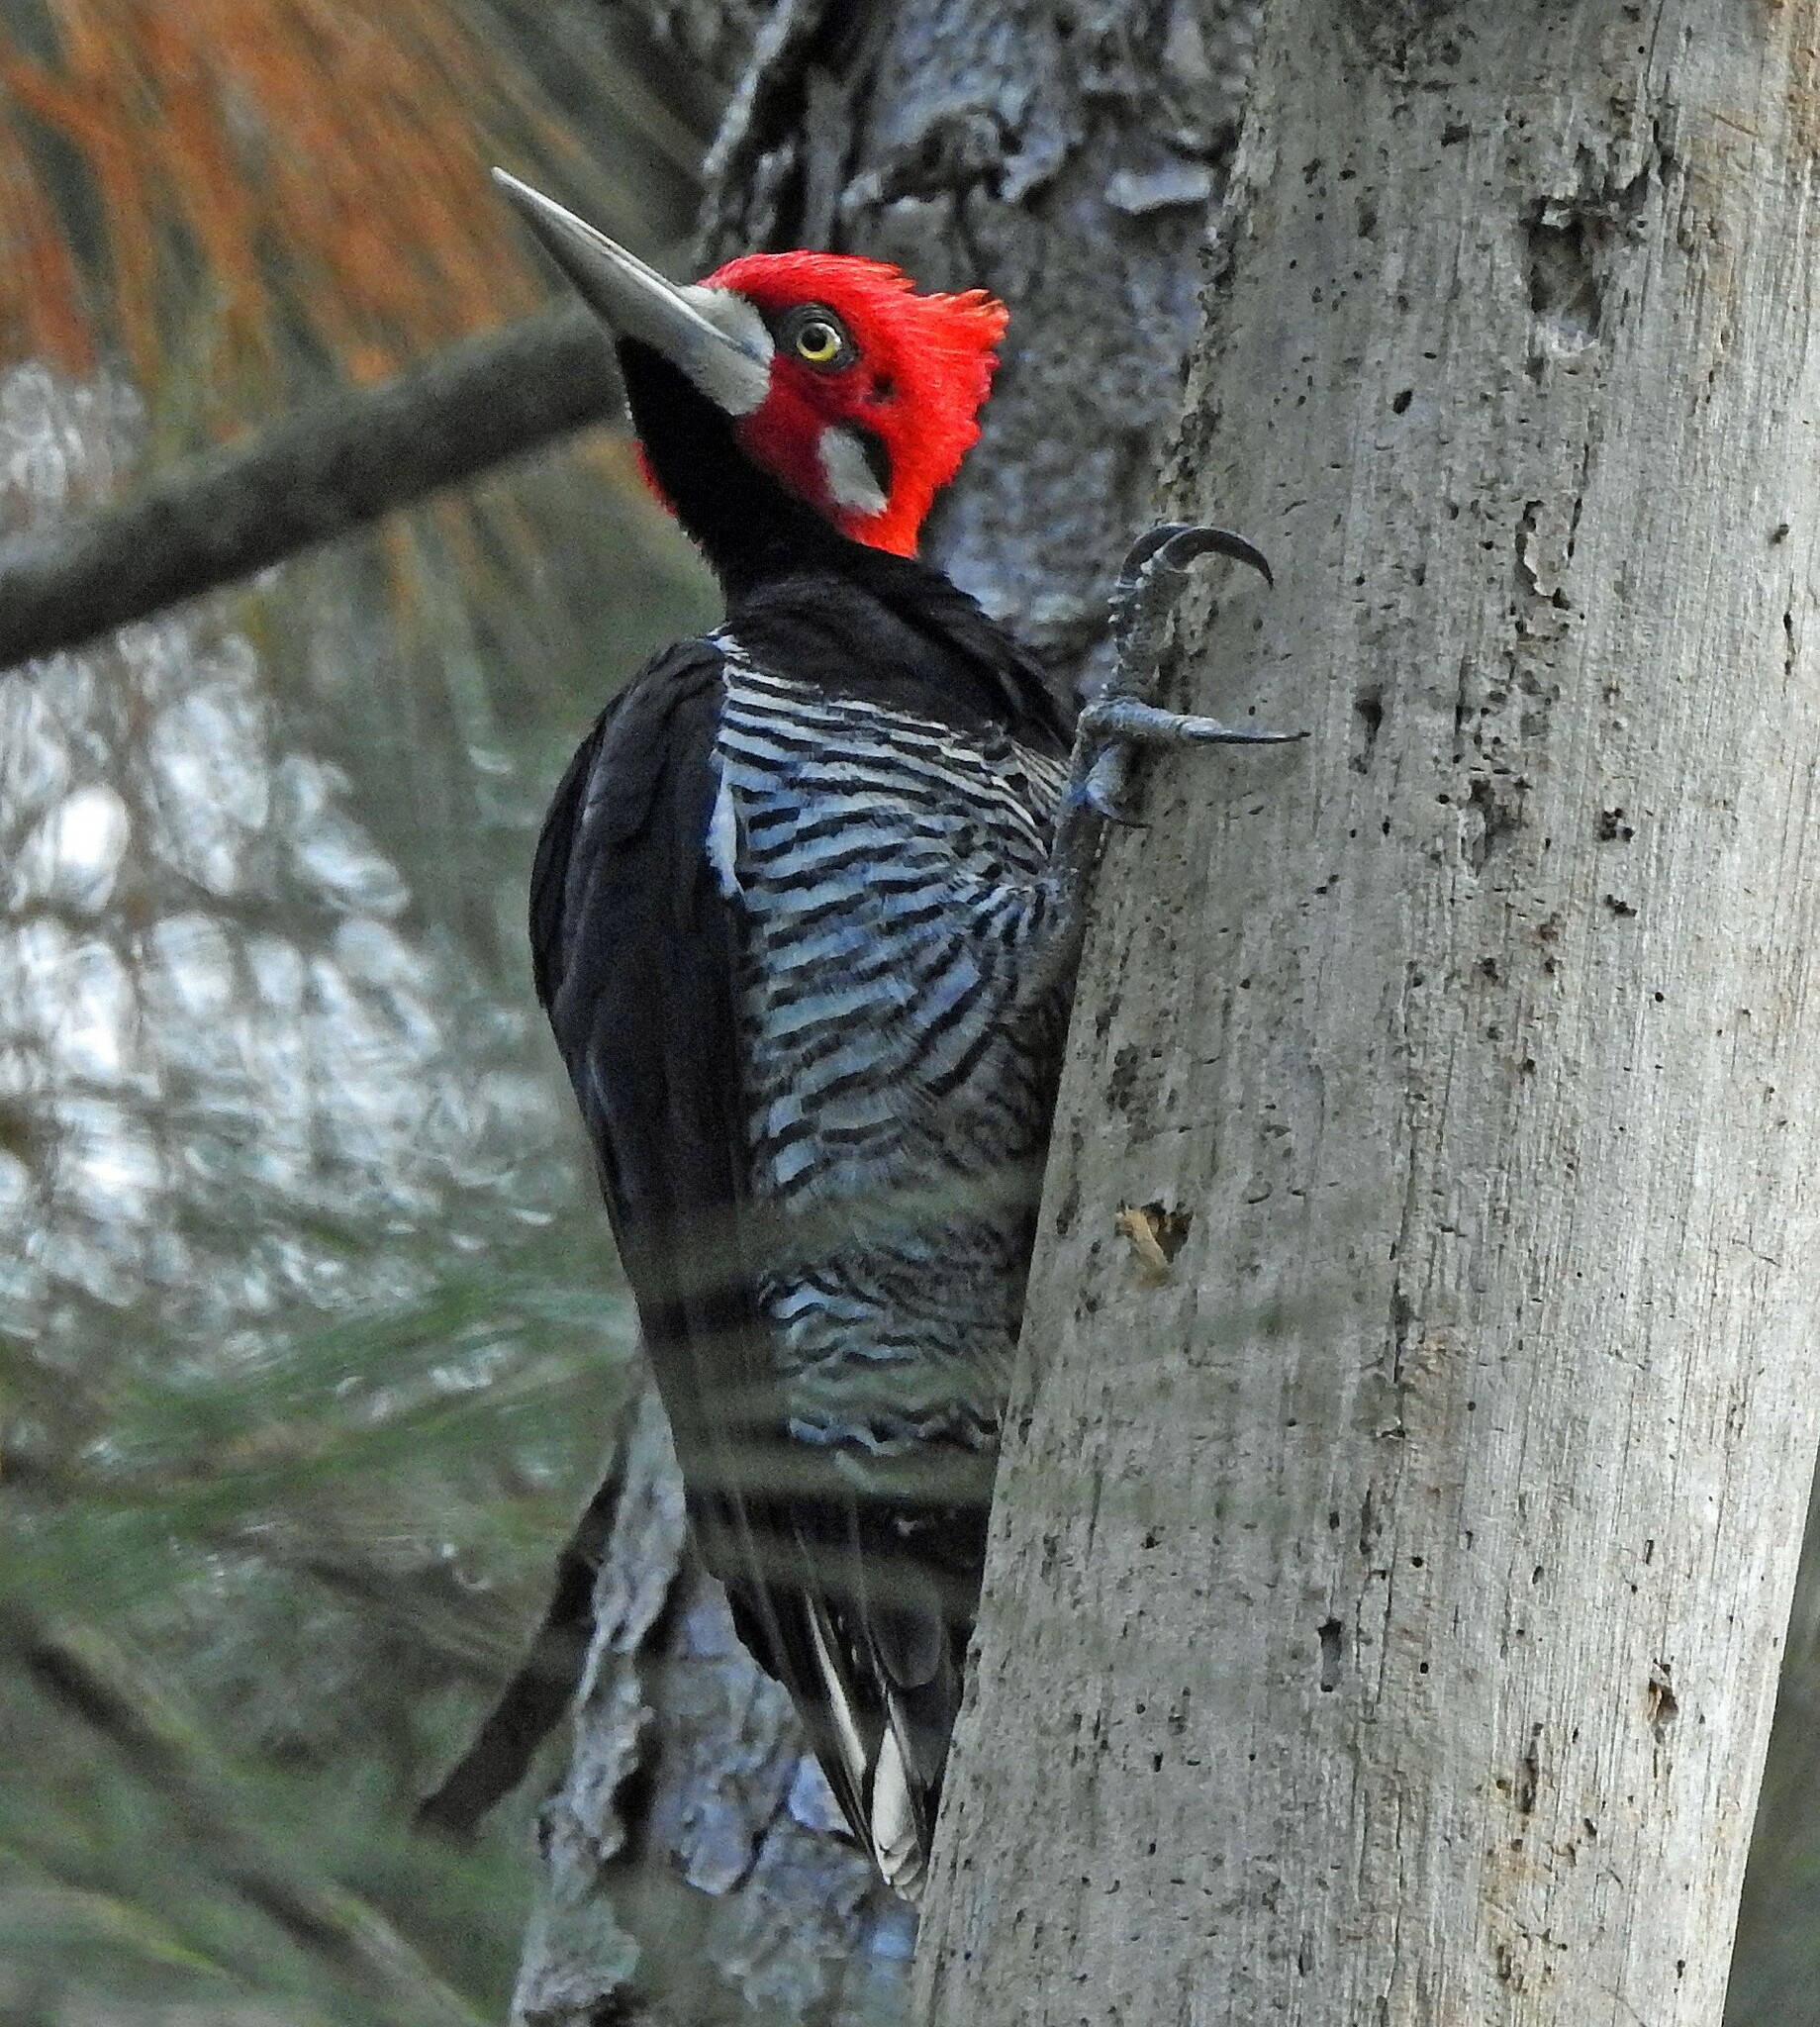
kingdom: Animalia
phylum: Chordata
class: Aves
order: Piciformes
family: Picidae
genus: Campephilus
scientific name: Campephilus melanoleucos
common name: Crimson-crested woodpecker
